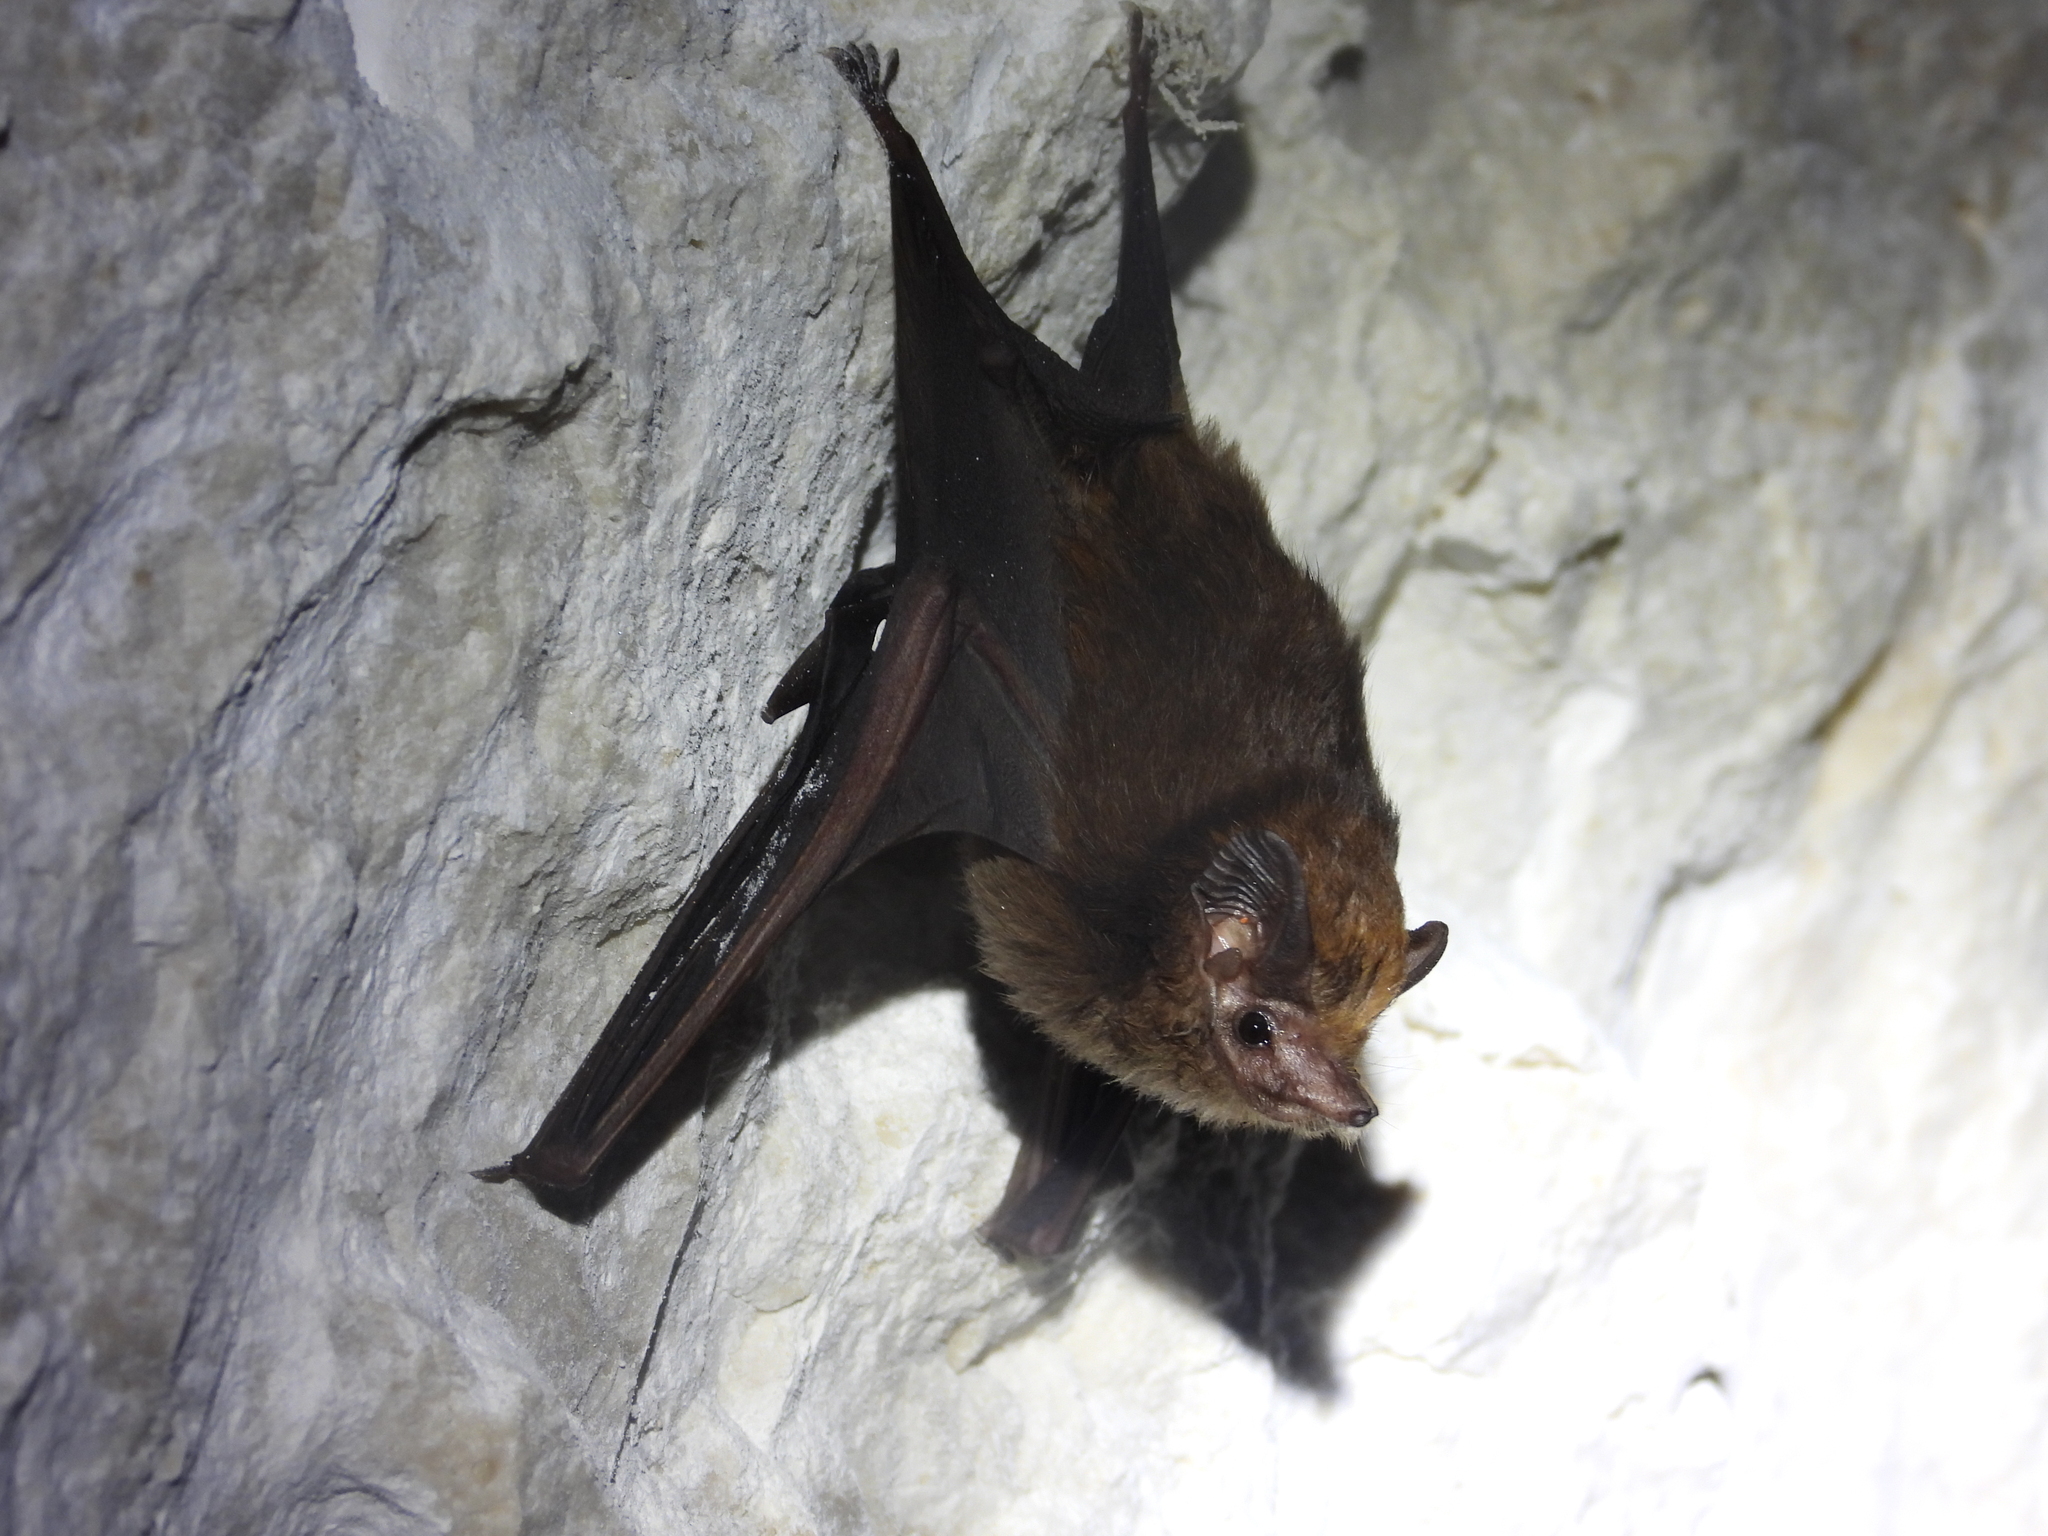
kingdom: Animalia
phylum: Chordata
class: Mammalia
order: Chiroptera
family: Emballonuridae
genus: Peropteryx
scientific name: Peropteryx macrotis
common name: Lesser dog-like bat
